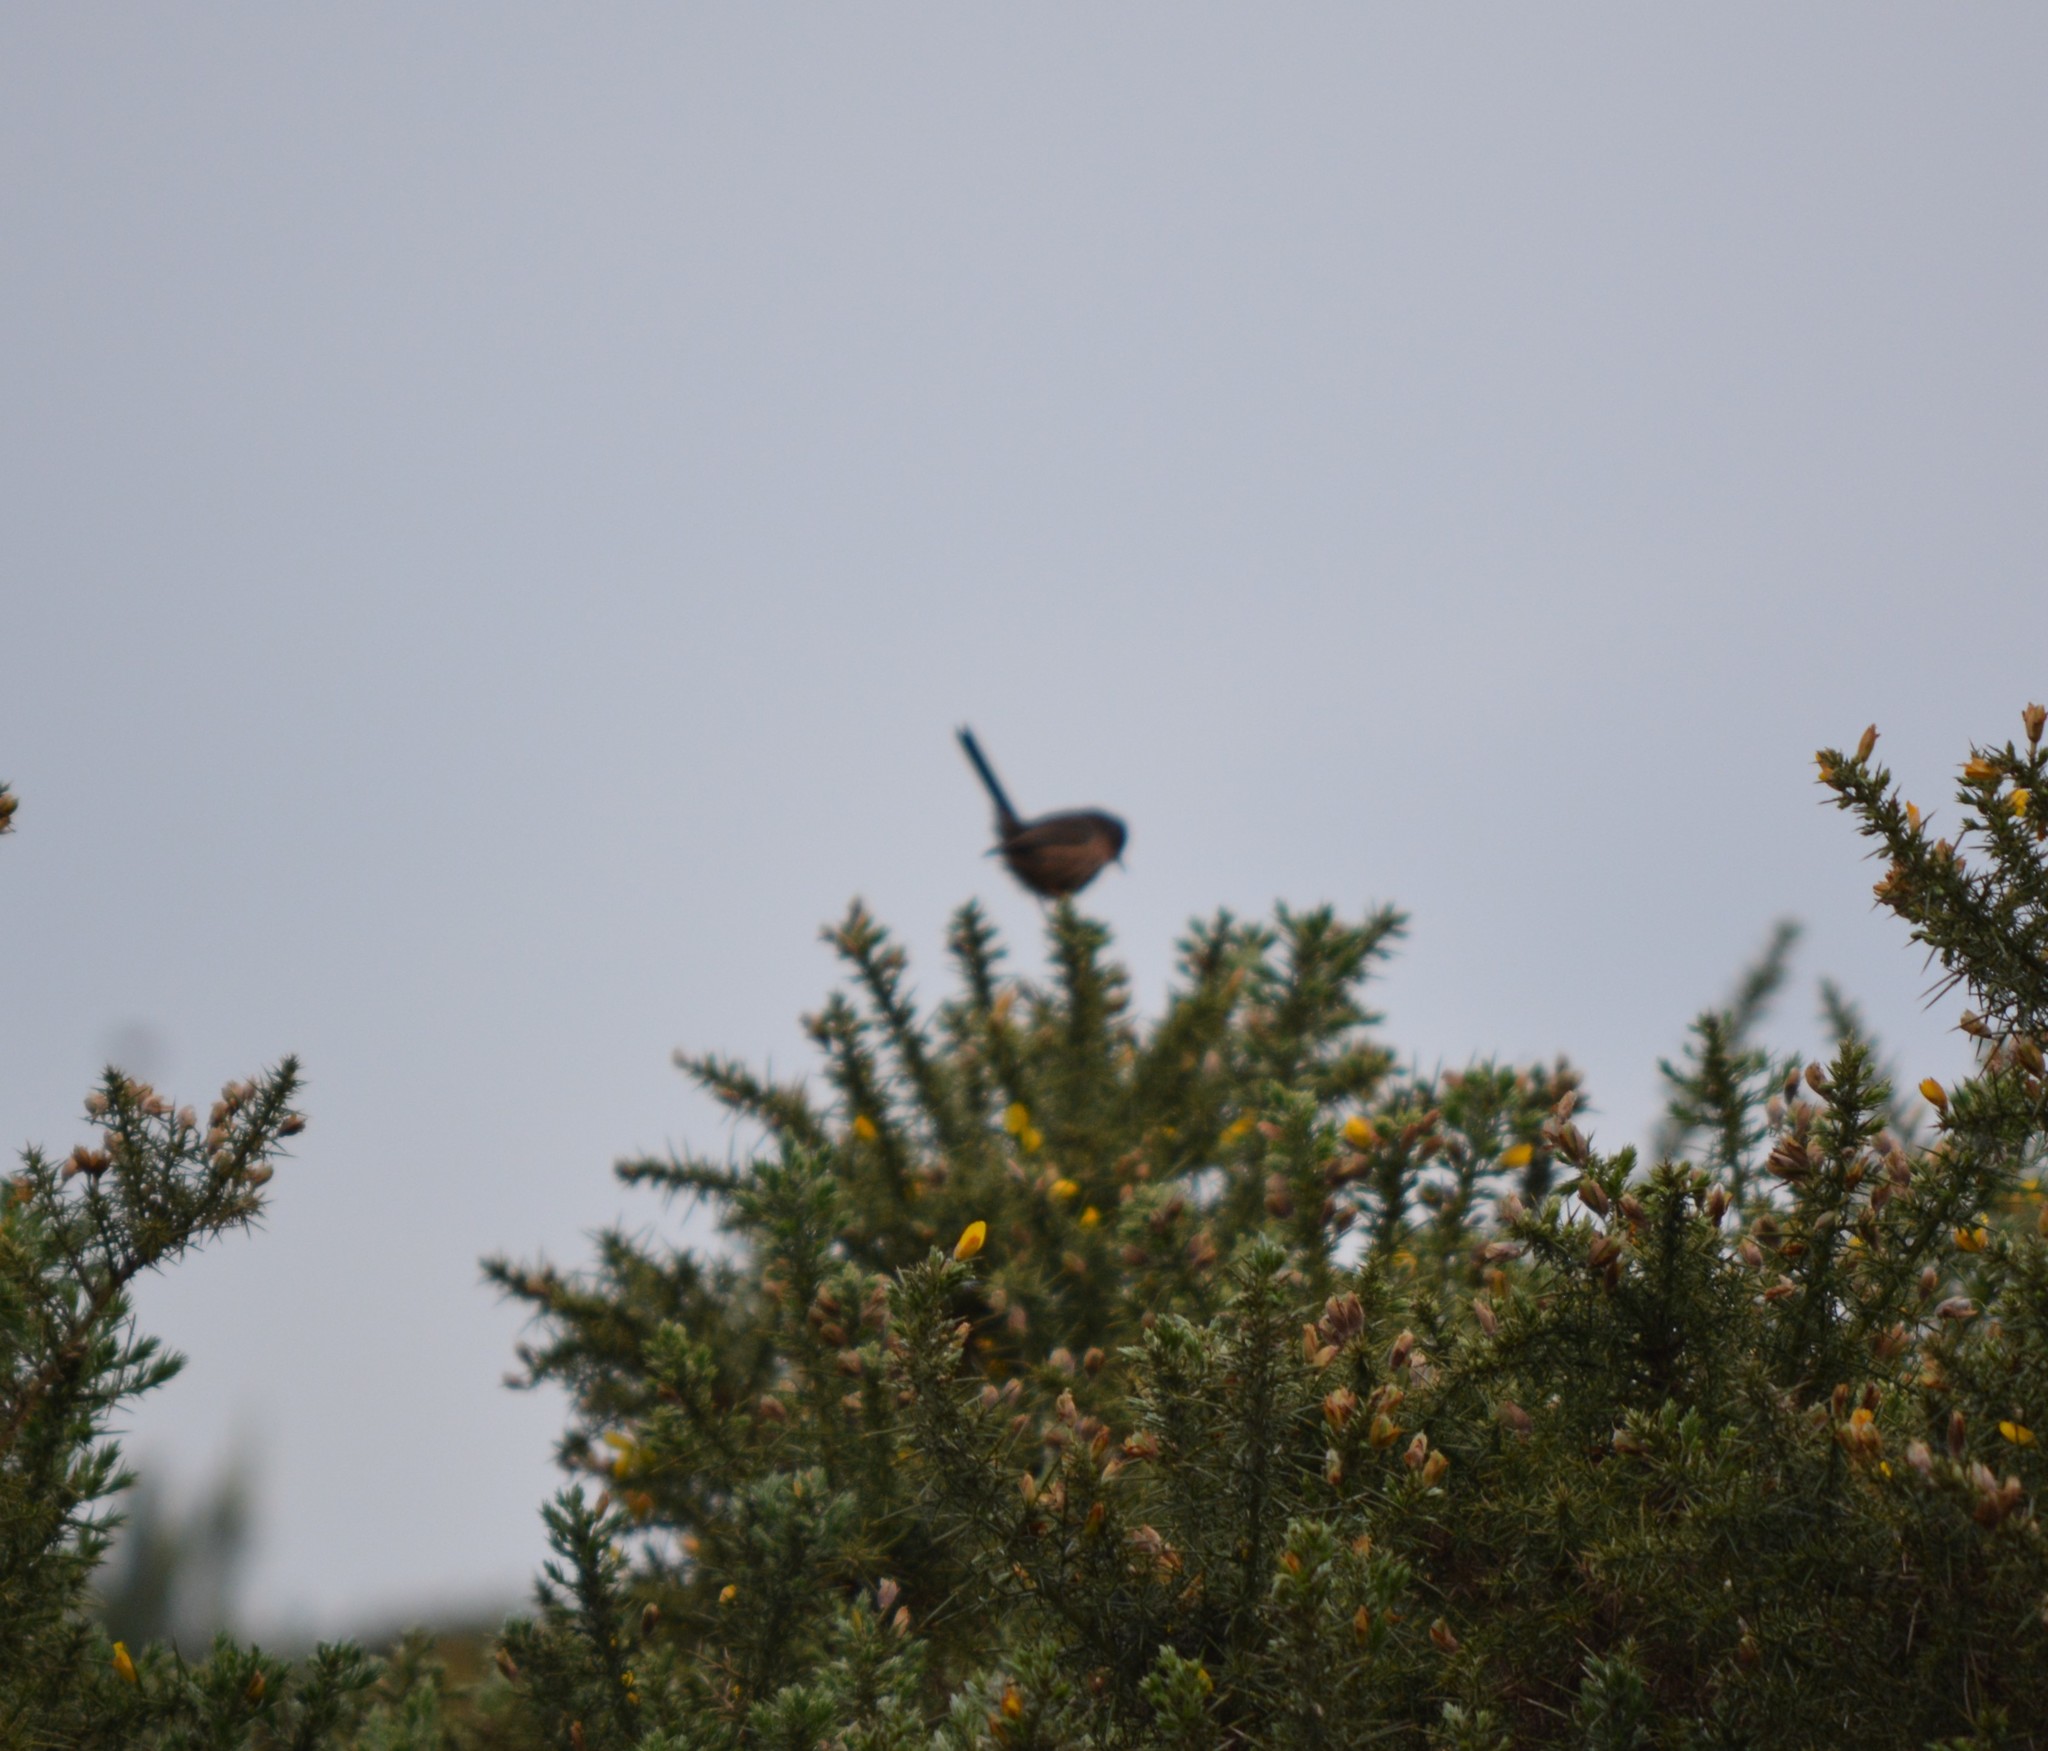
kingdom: Animalia
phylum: Chordata
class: Aves
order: Passeriformes
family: Sylviidae
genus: Sylvia
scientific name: Sylvia undata
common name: Dartford warbler
